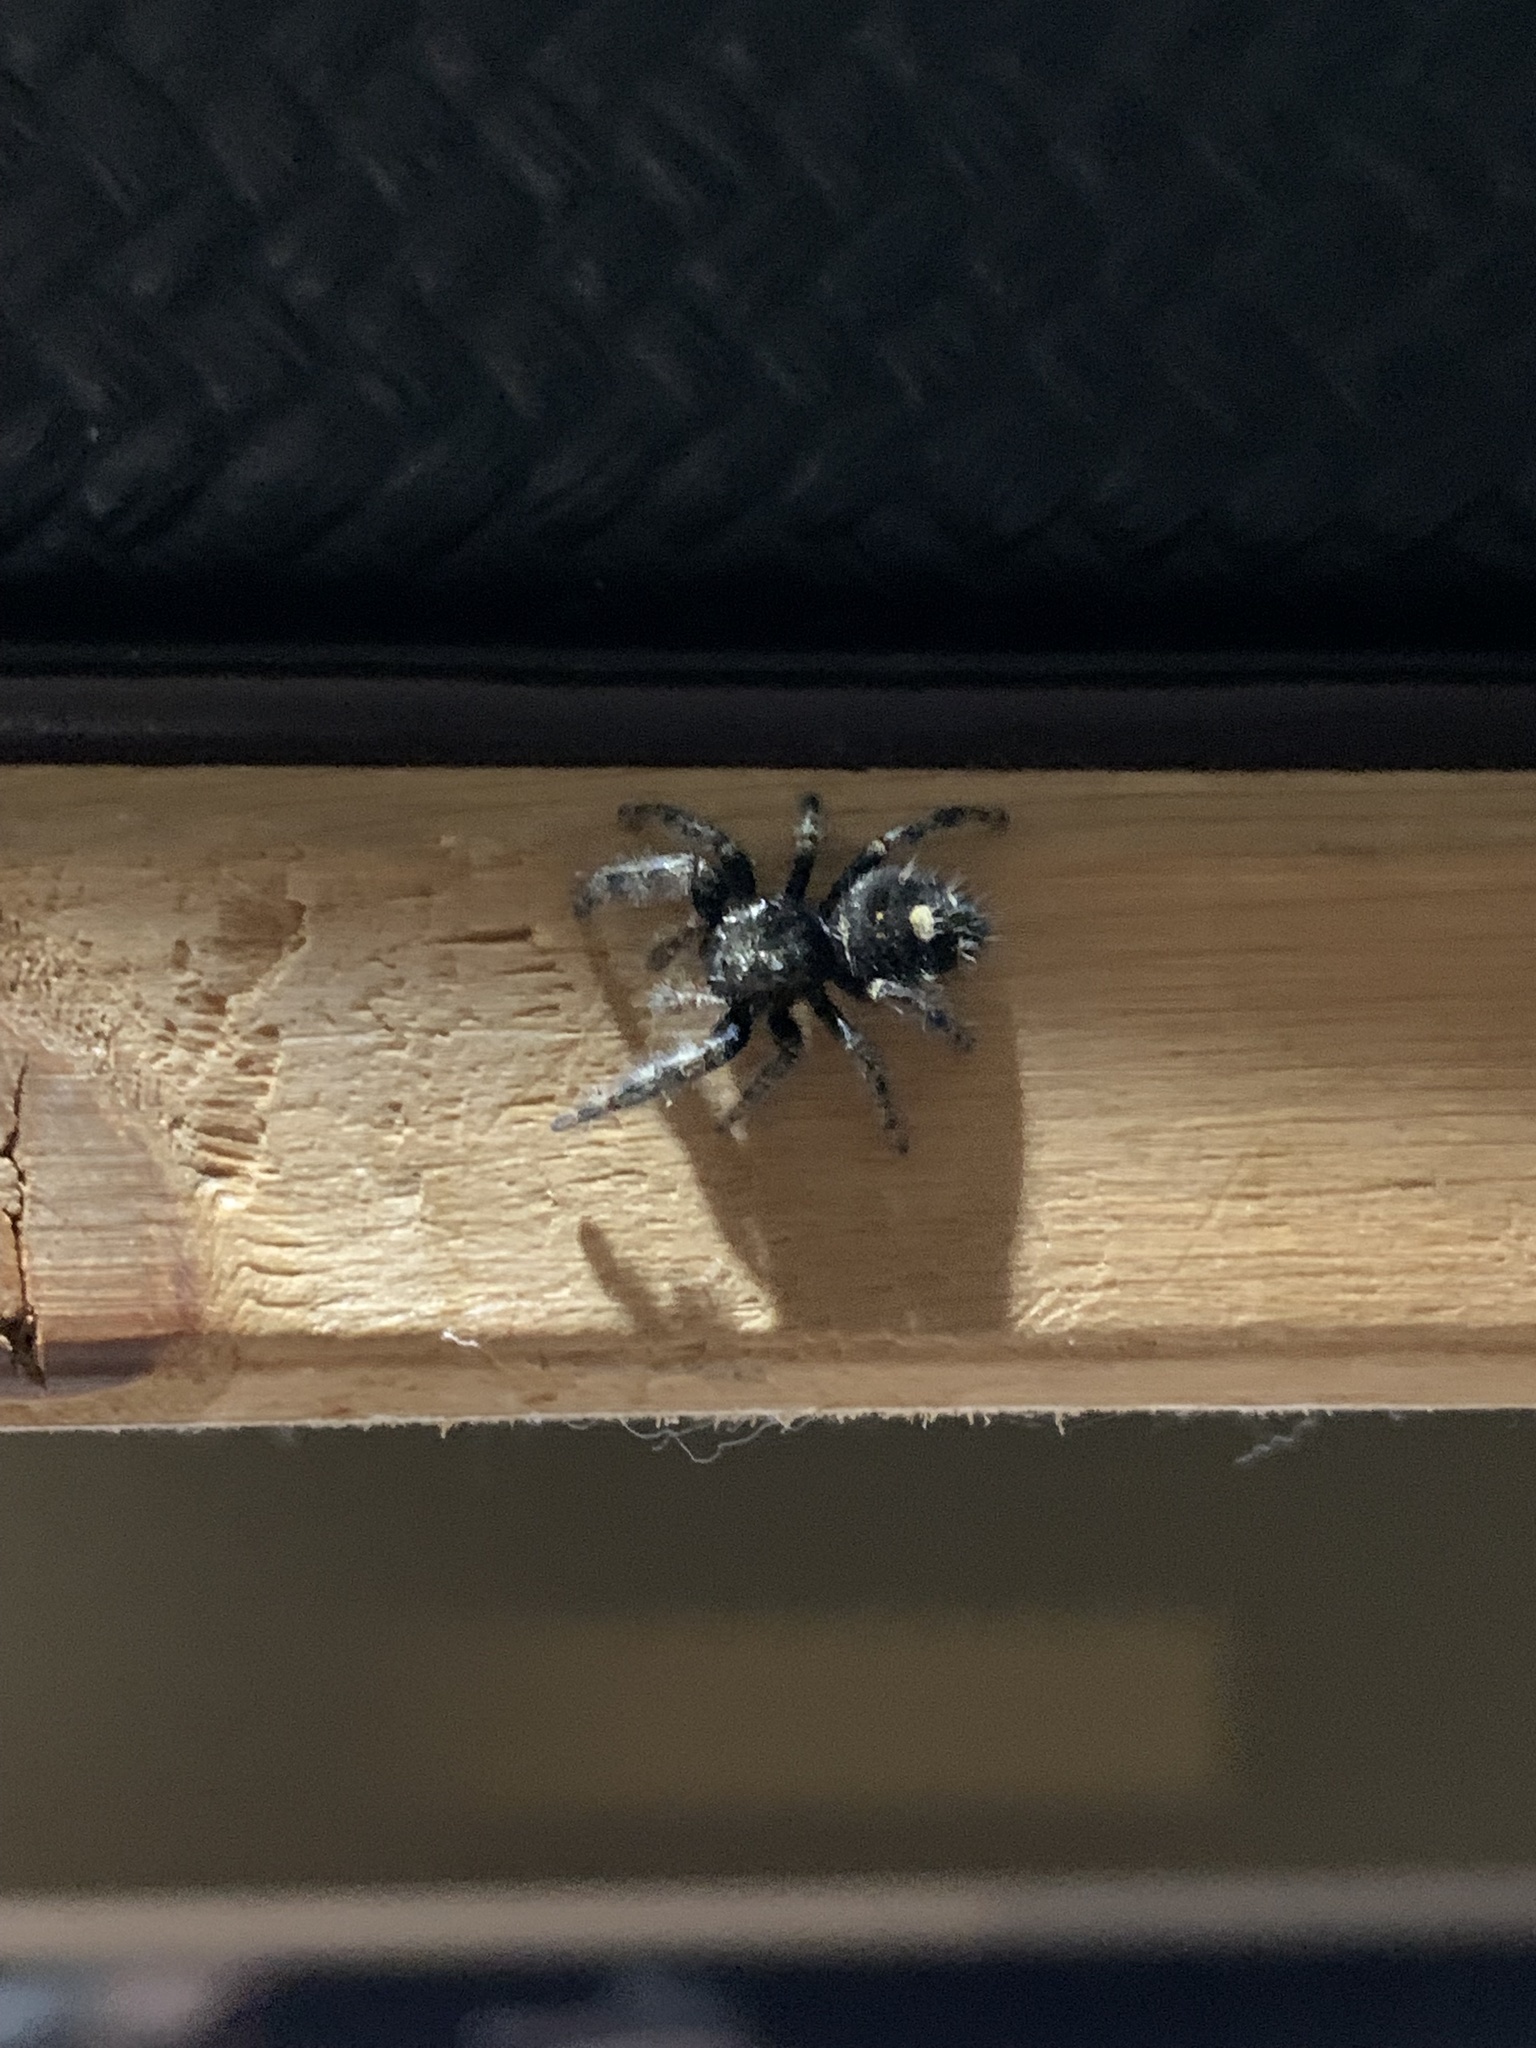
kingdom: Animalia
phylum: Arthropoda
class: Arachnida
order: Araneae
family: Salticidae
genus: Phidippus
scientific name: Phidippus audax
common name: Bold jumper
